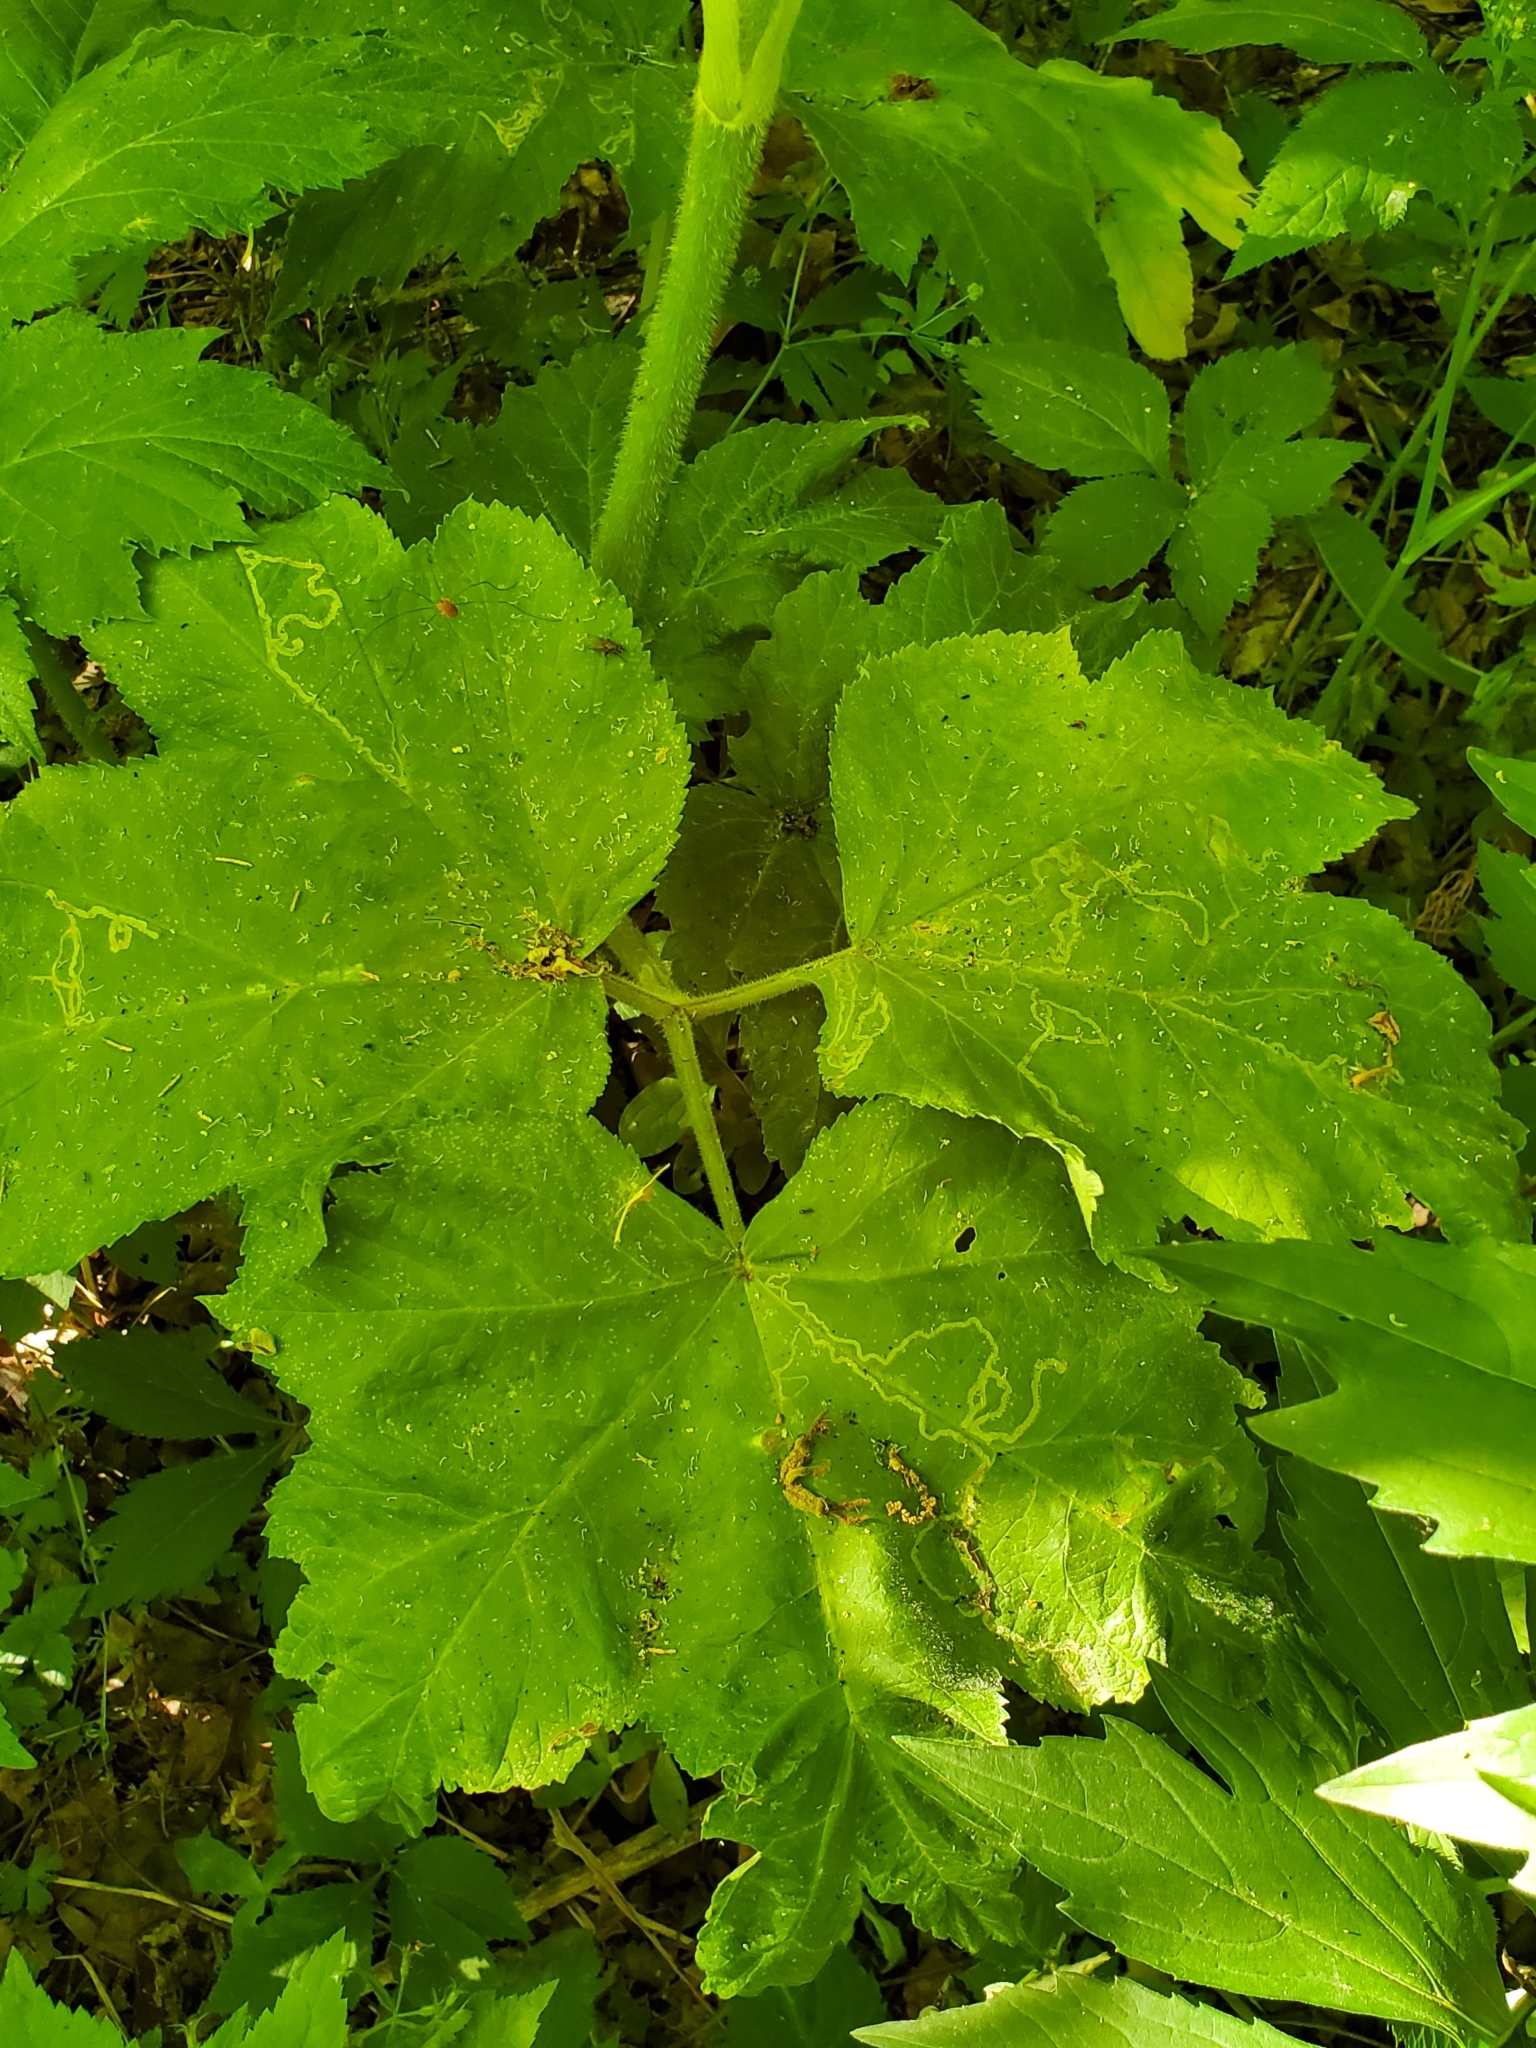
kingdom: Plantae
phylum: Tracheophyta
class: Magnoliopsida
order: Apiales
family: Apiaceae
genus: Heracleum
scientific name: Heracleum maximum
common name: American cow parsnip
